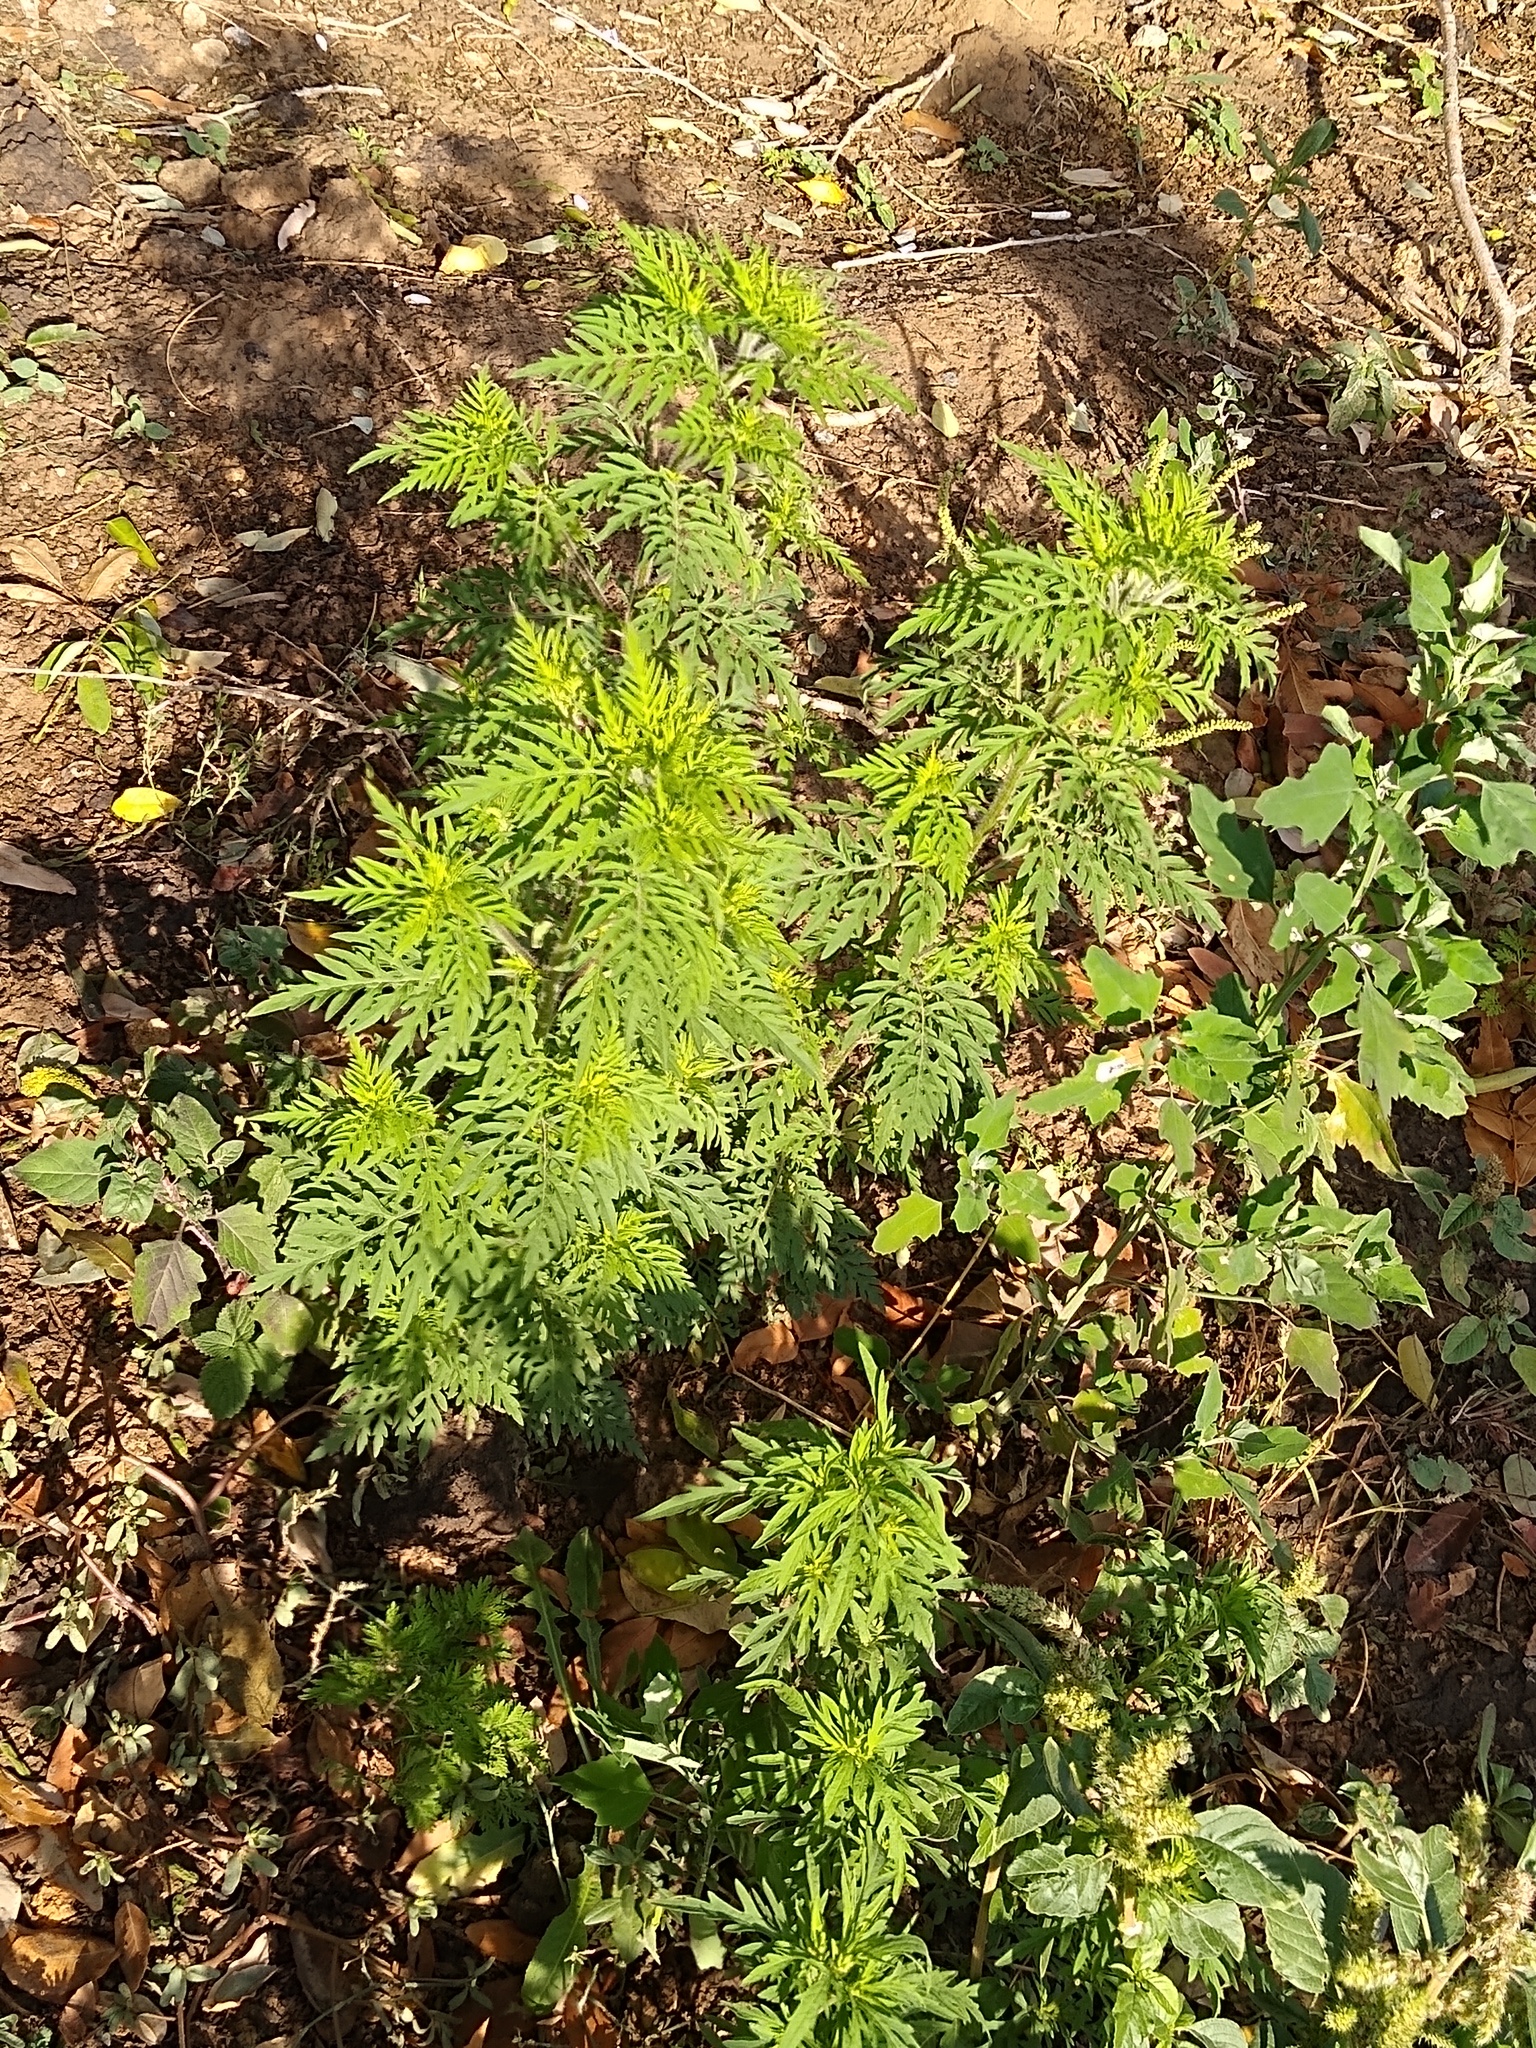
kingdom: Plantae
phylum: Tracheophyta
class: Magnoliopsida
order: Asterales
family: Asteraceae
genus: Ambrosia
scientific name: Ambrosia artemisiifolia
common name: Annual ragweed
